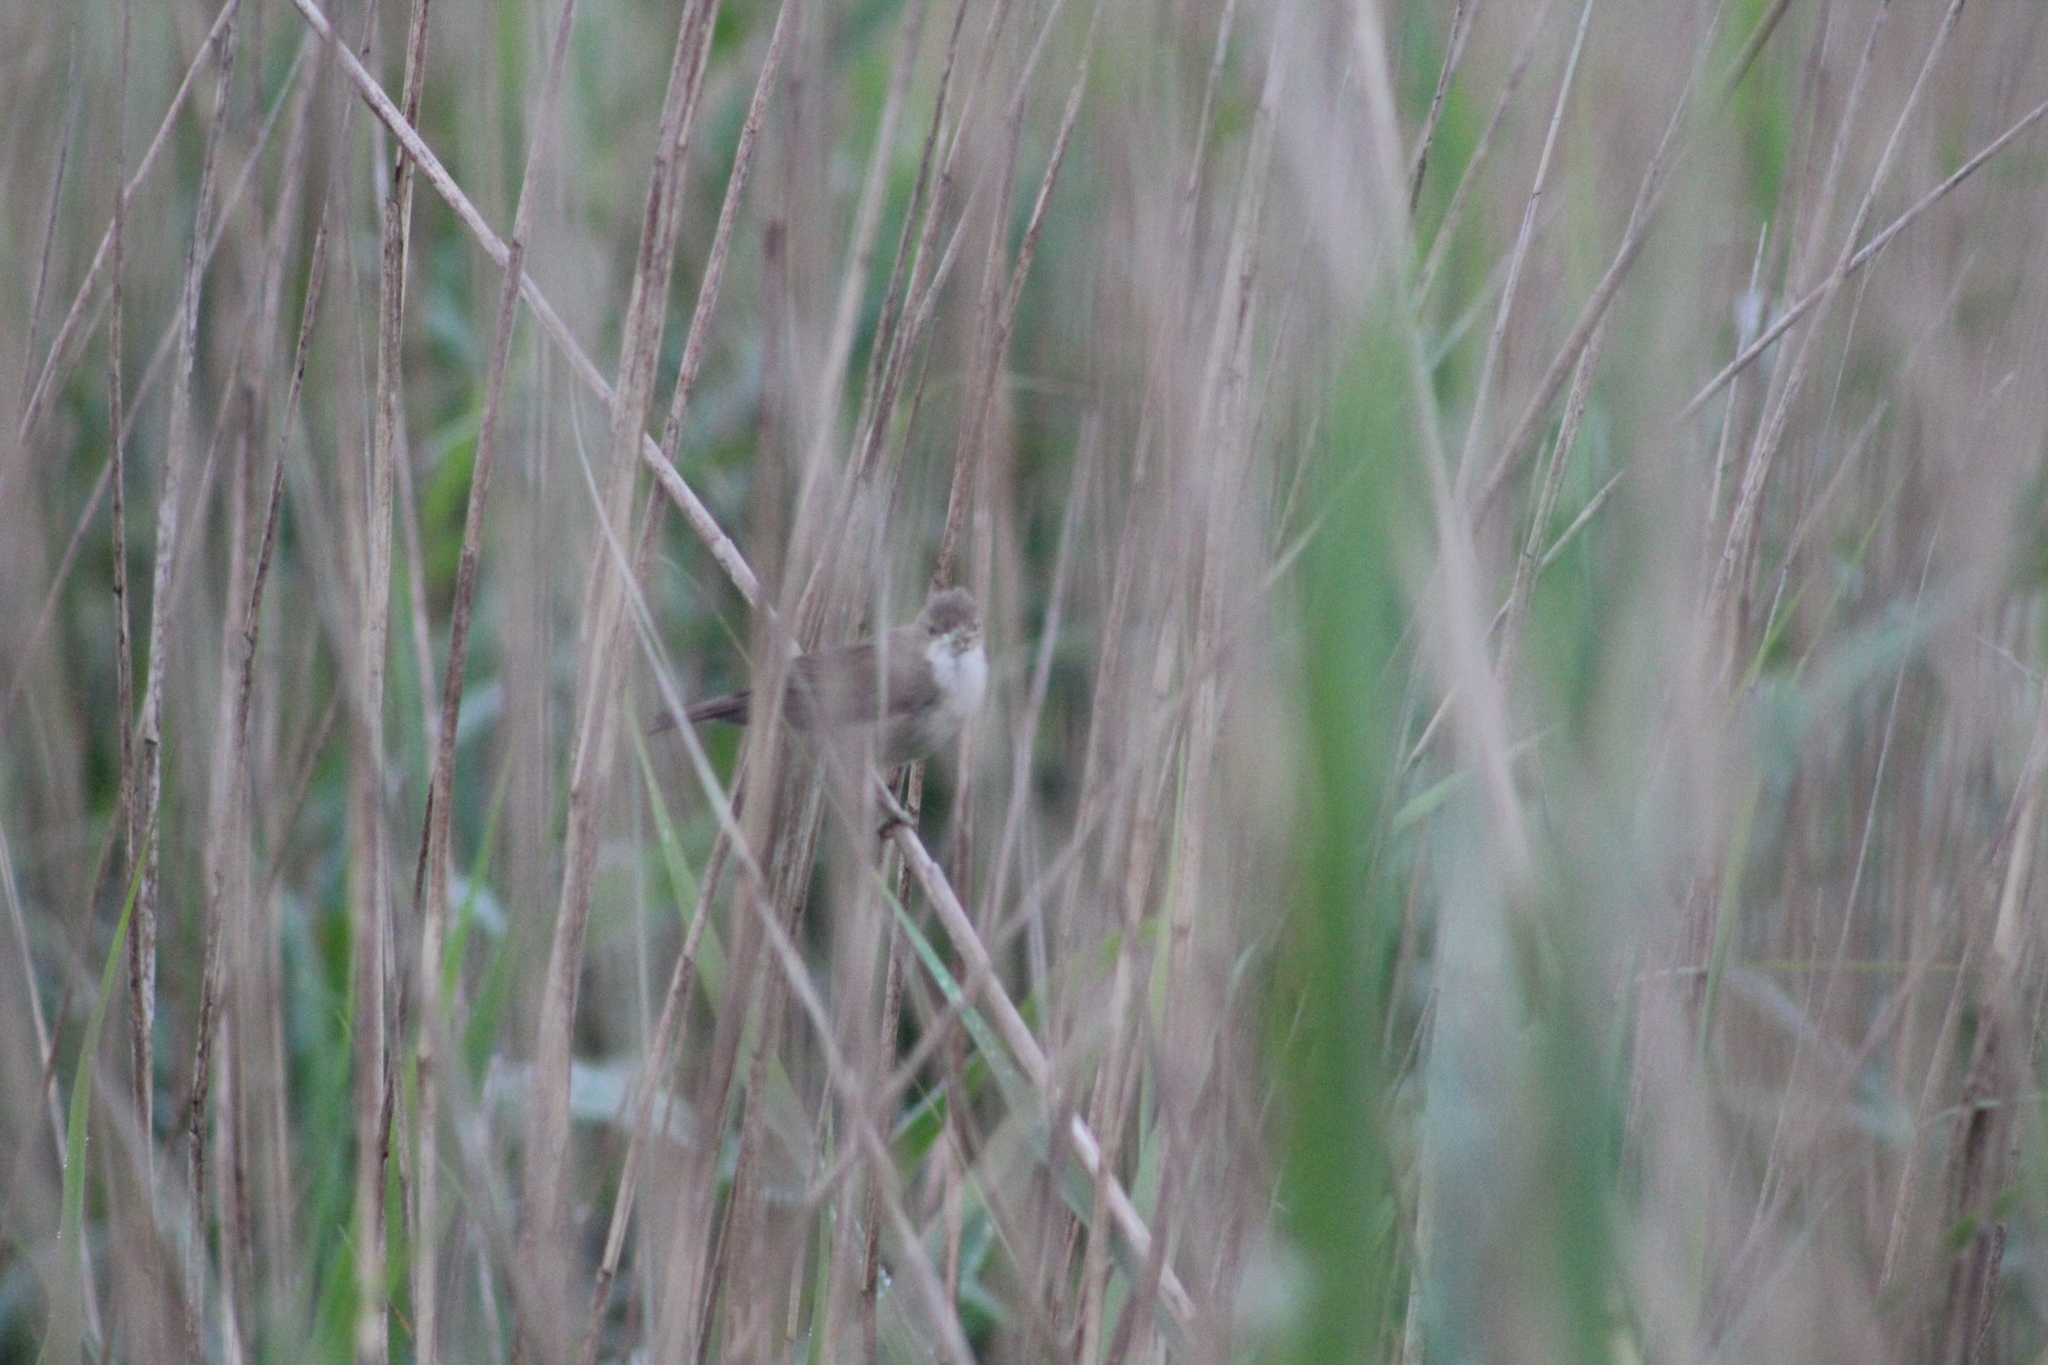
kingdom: Animalia
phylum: Chordata
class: Aves
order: Passeriformes
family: Acrocephalidae
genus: Acrocephalus
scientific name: Acrocephalus scirpaceus
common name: Eurasian reed warbler
